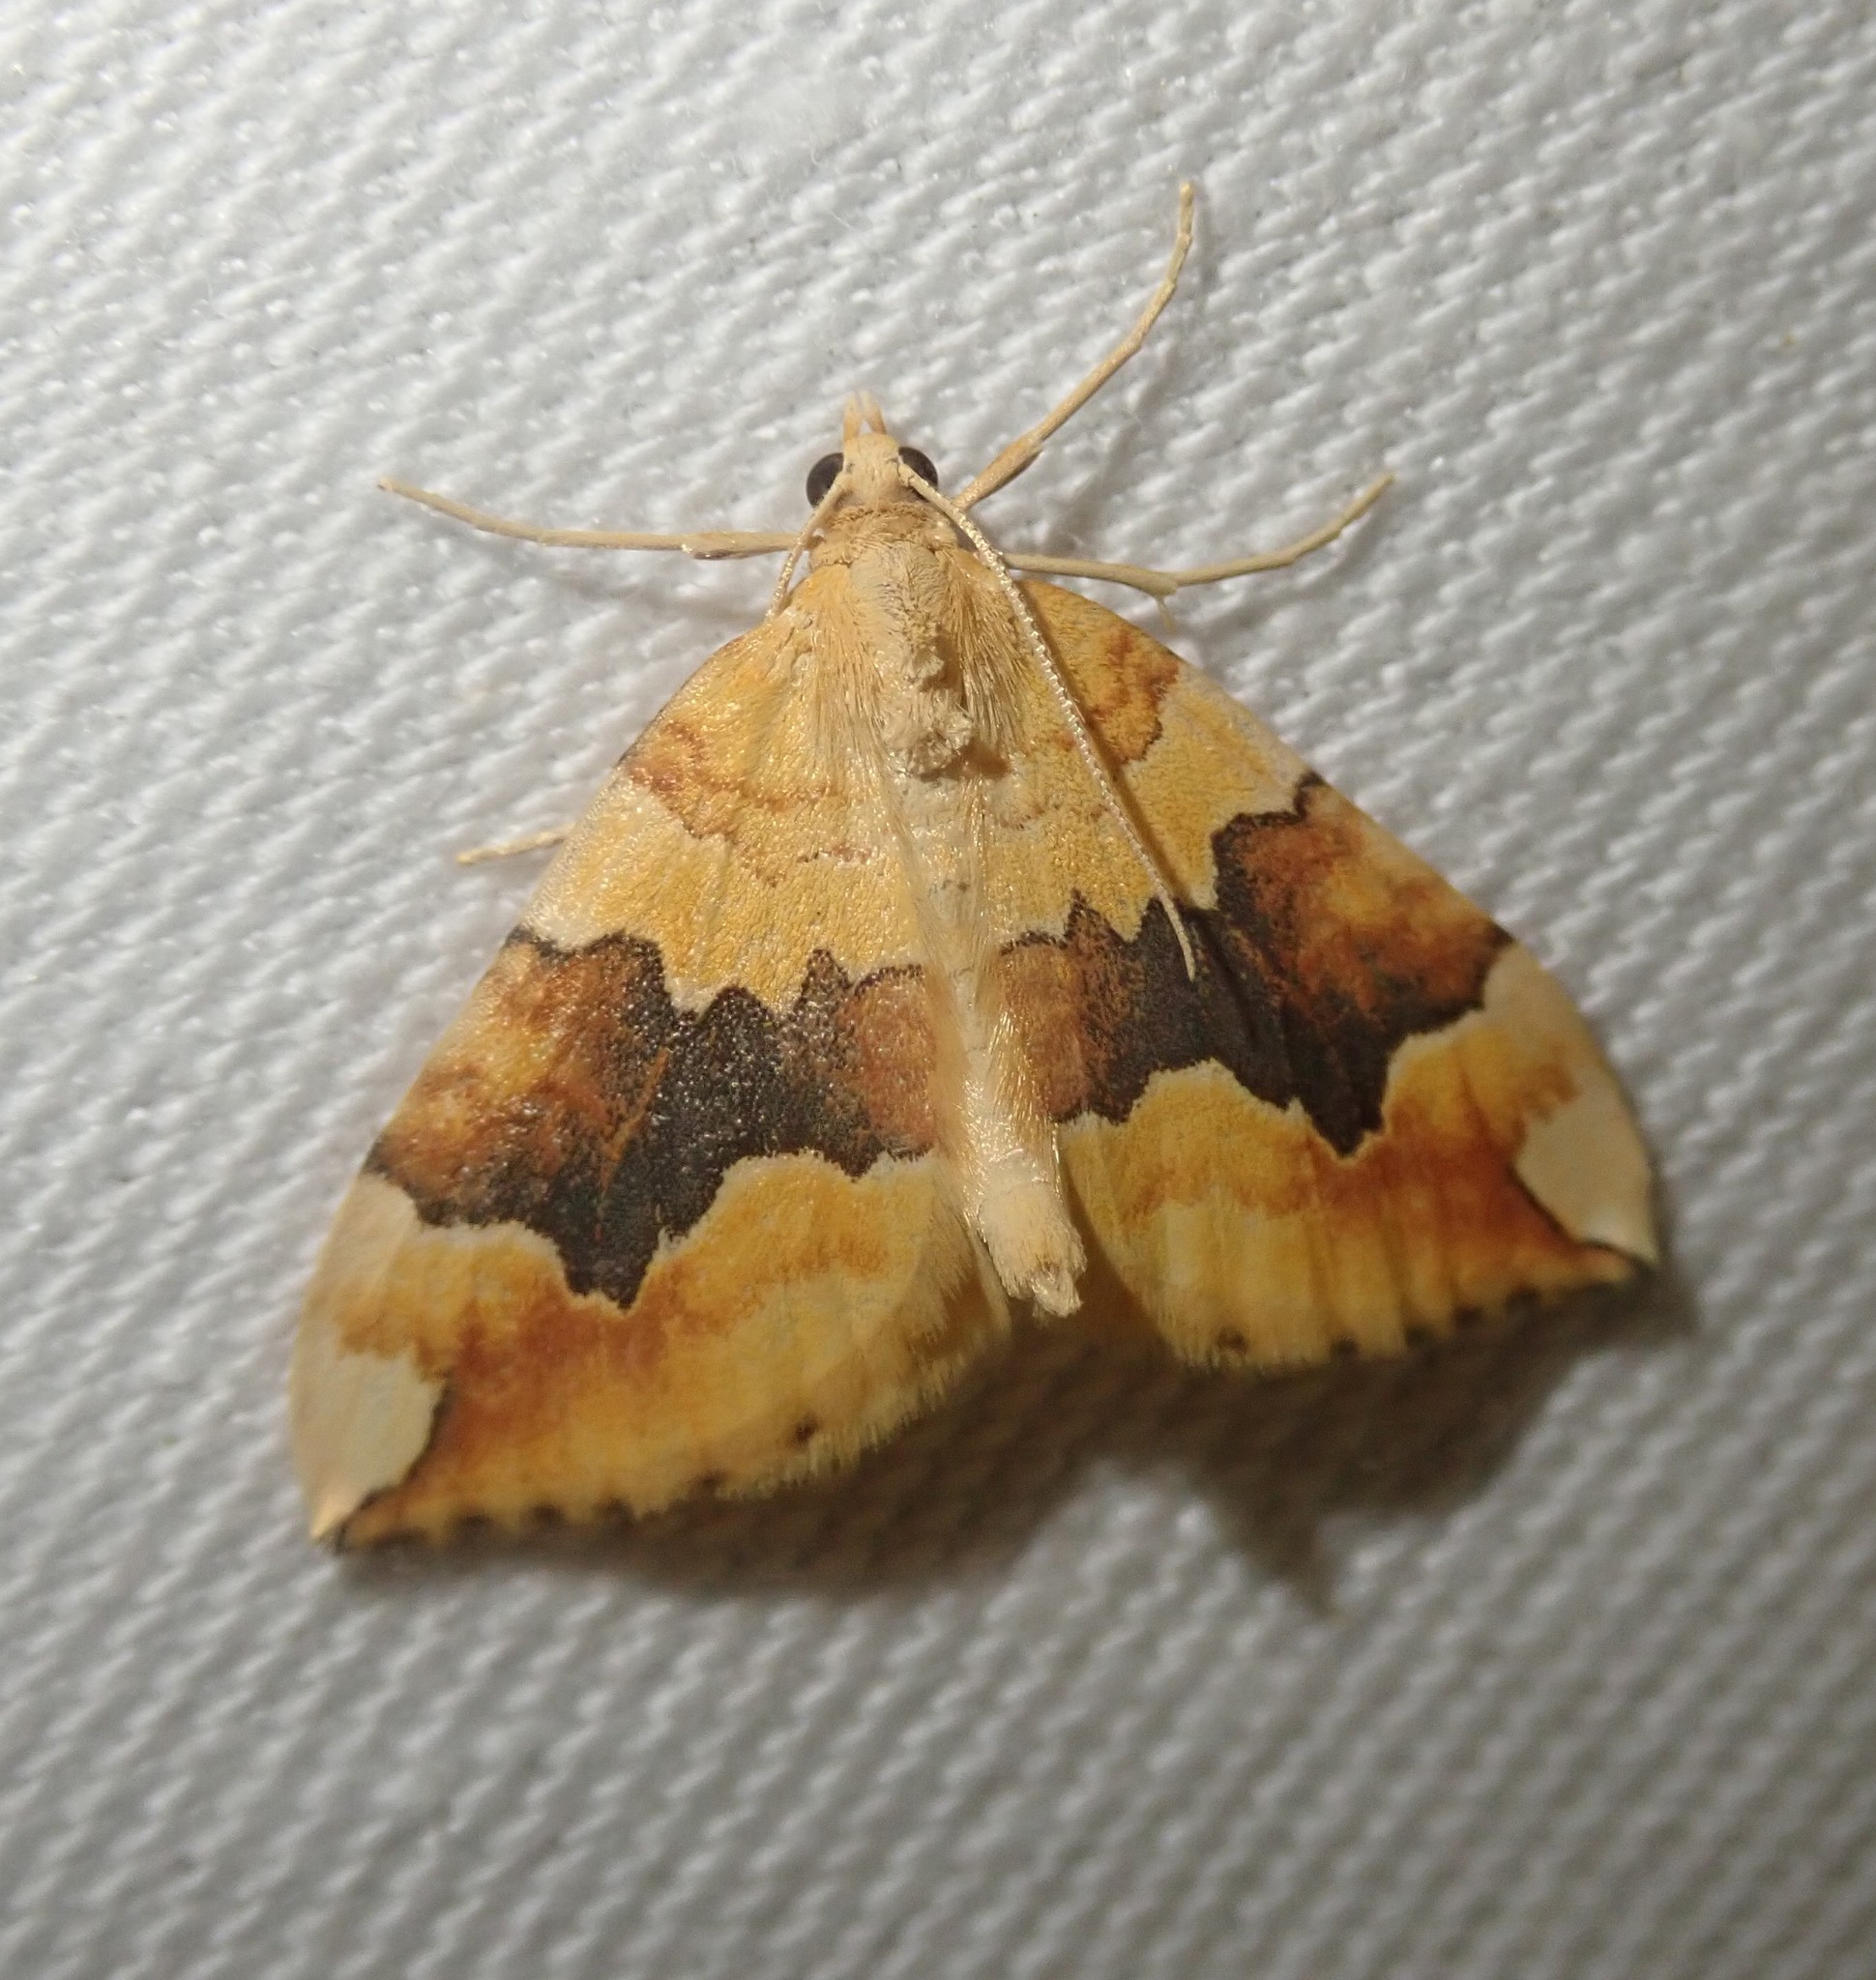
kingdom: Animalia
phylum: Arthropoda
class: Insecta
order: Lepidoptera
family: Geometridae
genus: Cidaria
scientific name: Cidaria fulvata
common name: Barred yellow
